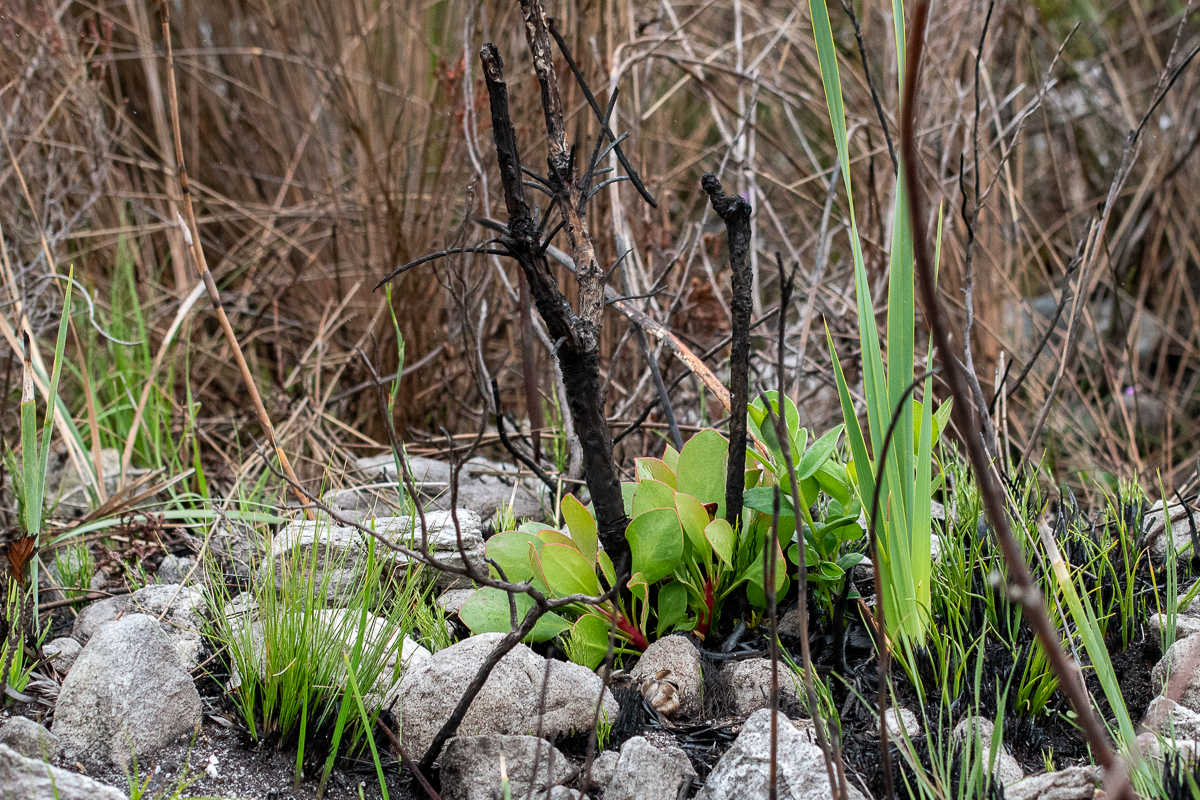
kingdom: Plantae
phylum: Tracheophyta
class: Magnoliopsida
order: Proteales
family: Proteaceae
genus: Protea
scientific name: Protea cynaroides
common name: King protea
